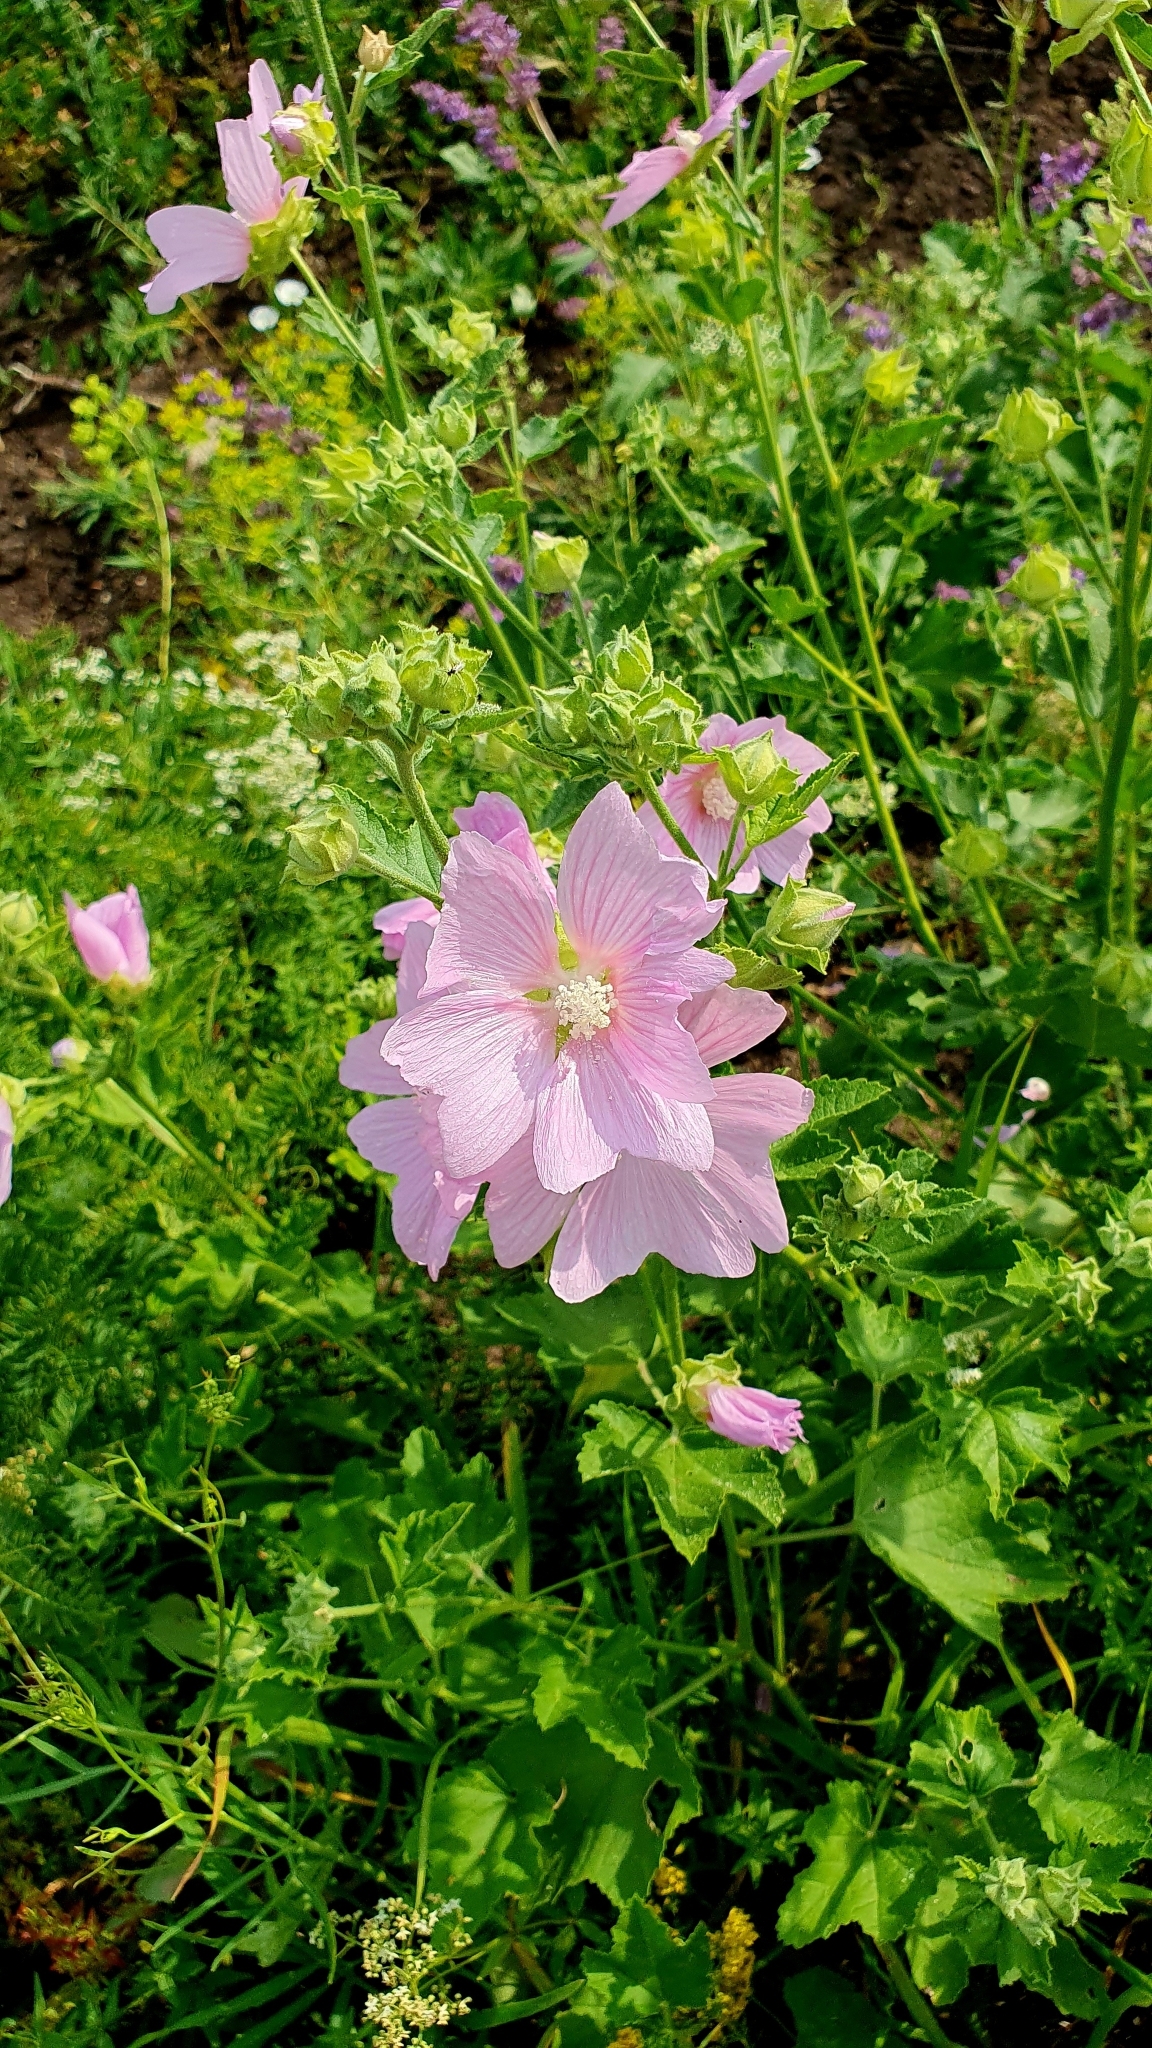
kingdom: Plantae
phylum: Tracheophyta
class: Magnoliopsida
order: Malvales
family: Malvaceae
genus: Malva
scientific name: Malva thuringiaca
